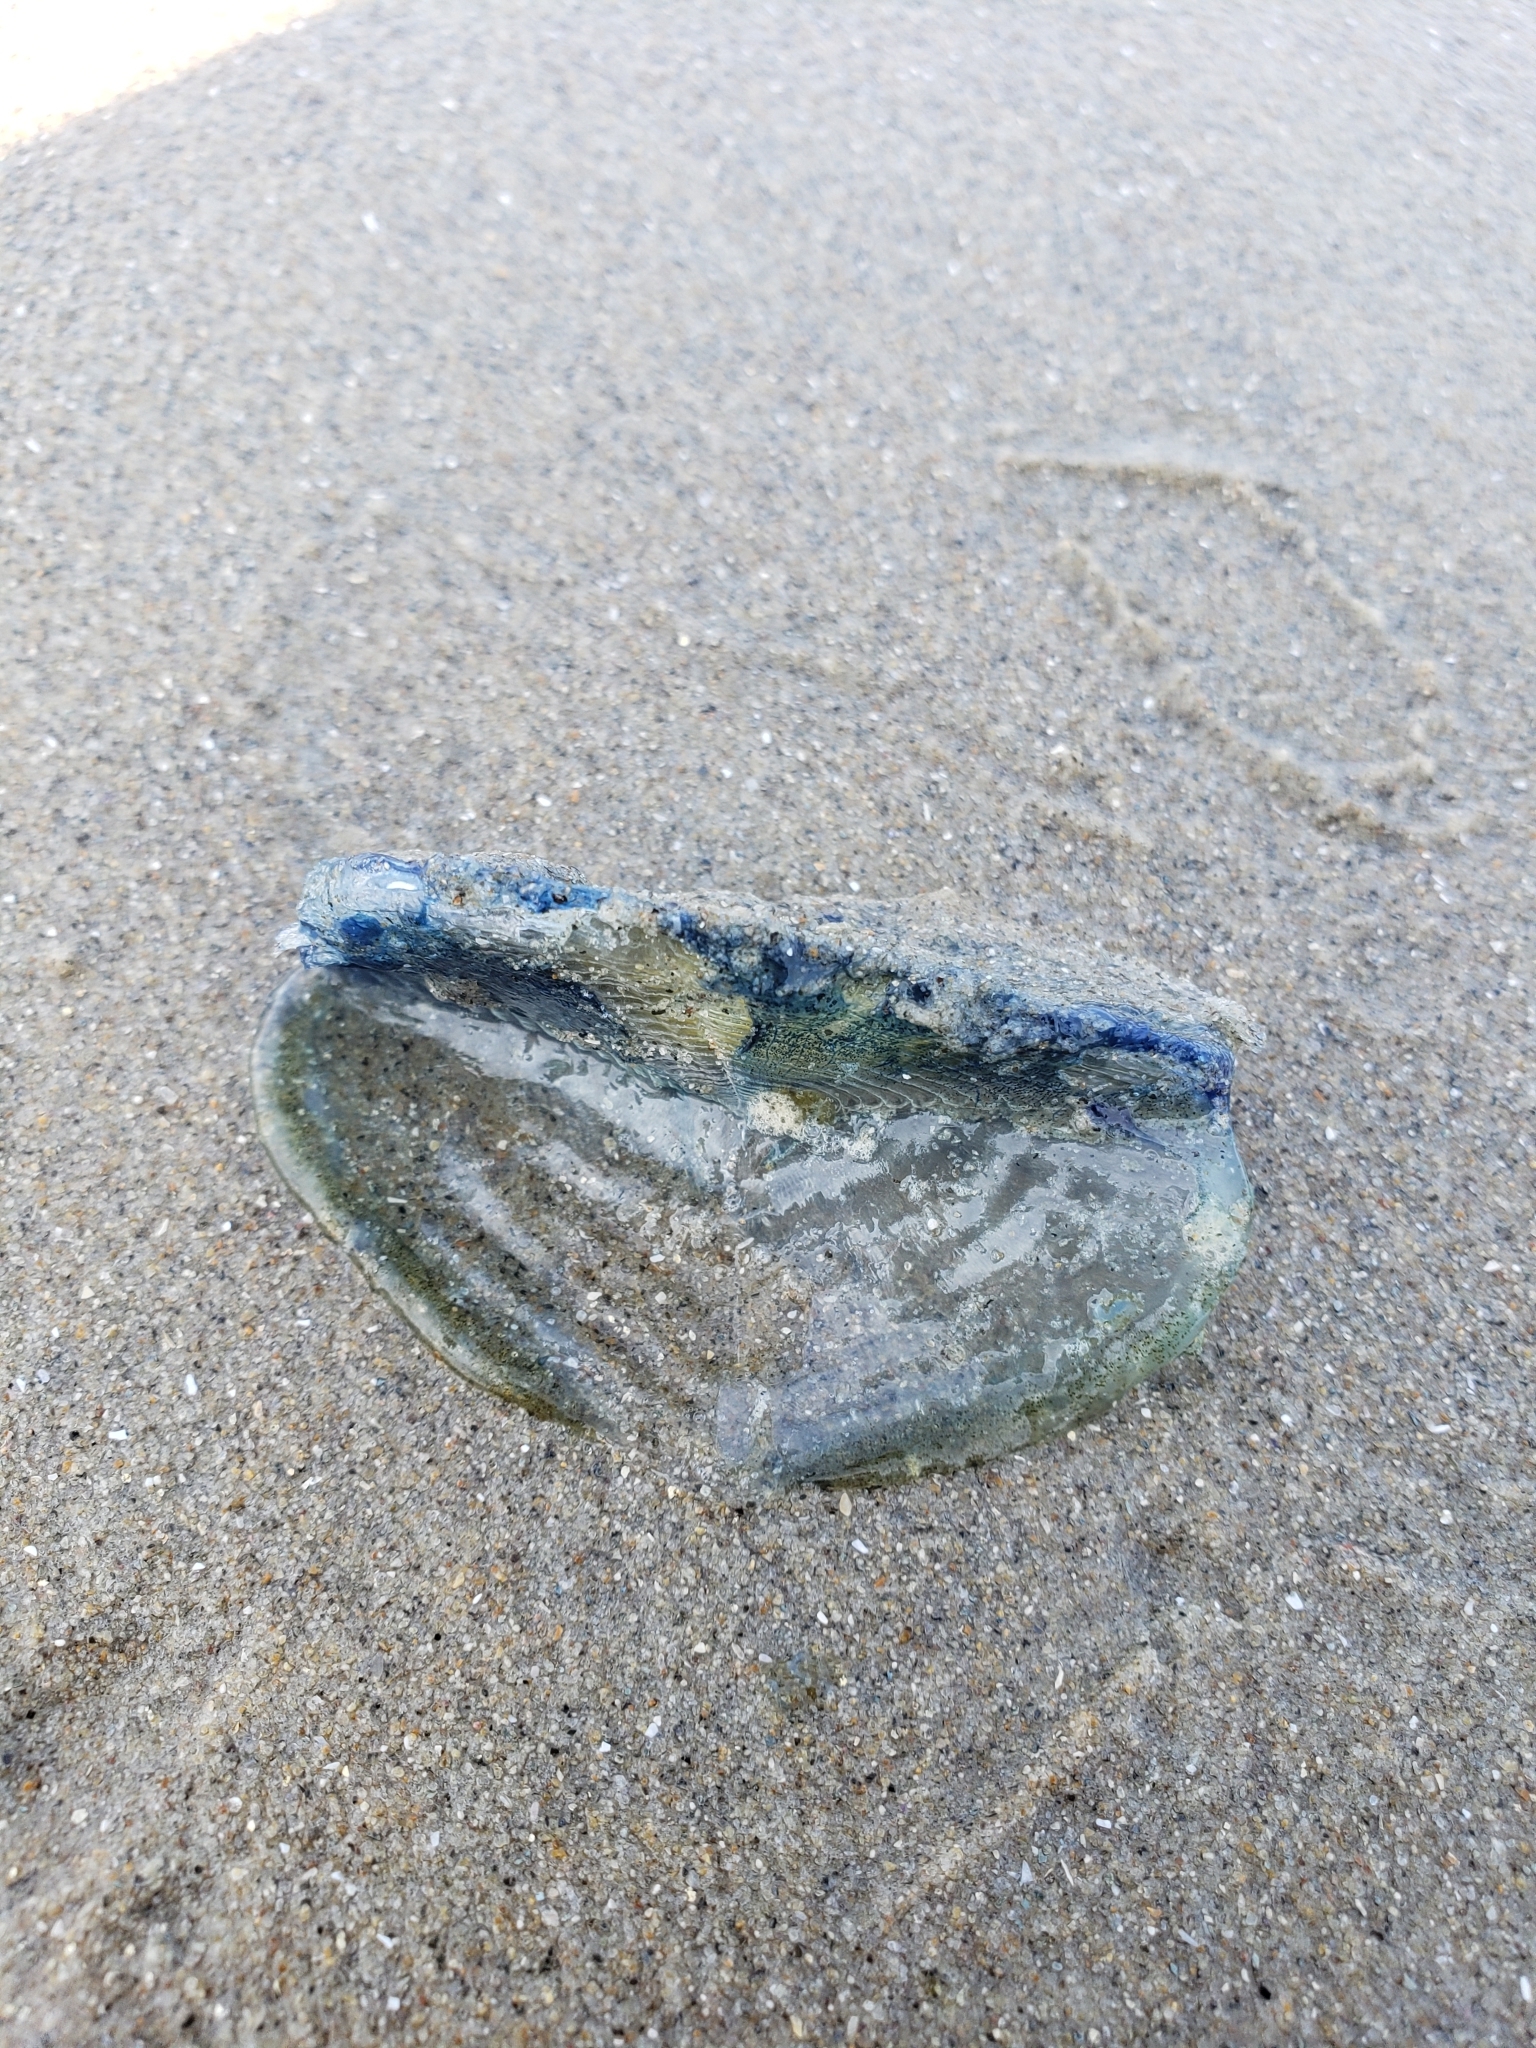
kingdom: Animalia
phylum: Cnidaria
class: Hydrozoa
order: Anthoathecata
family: Porpitidae
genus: Velella
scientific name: Velella velella
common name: By-the-wind-sailor
